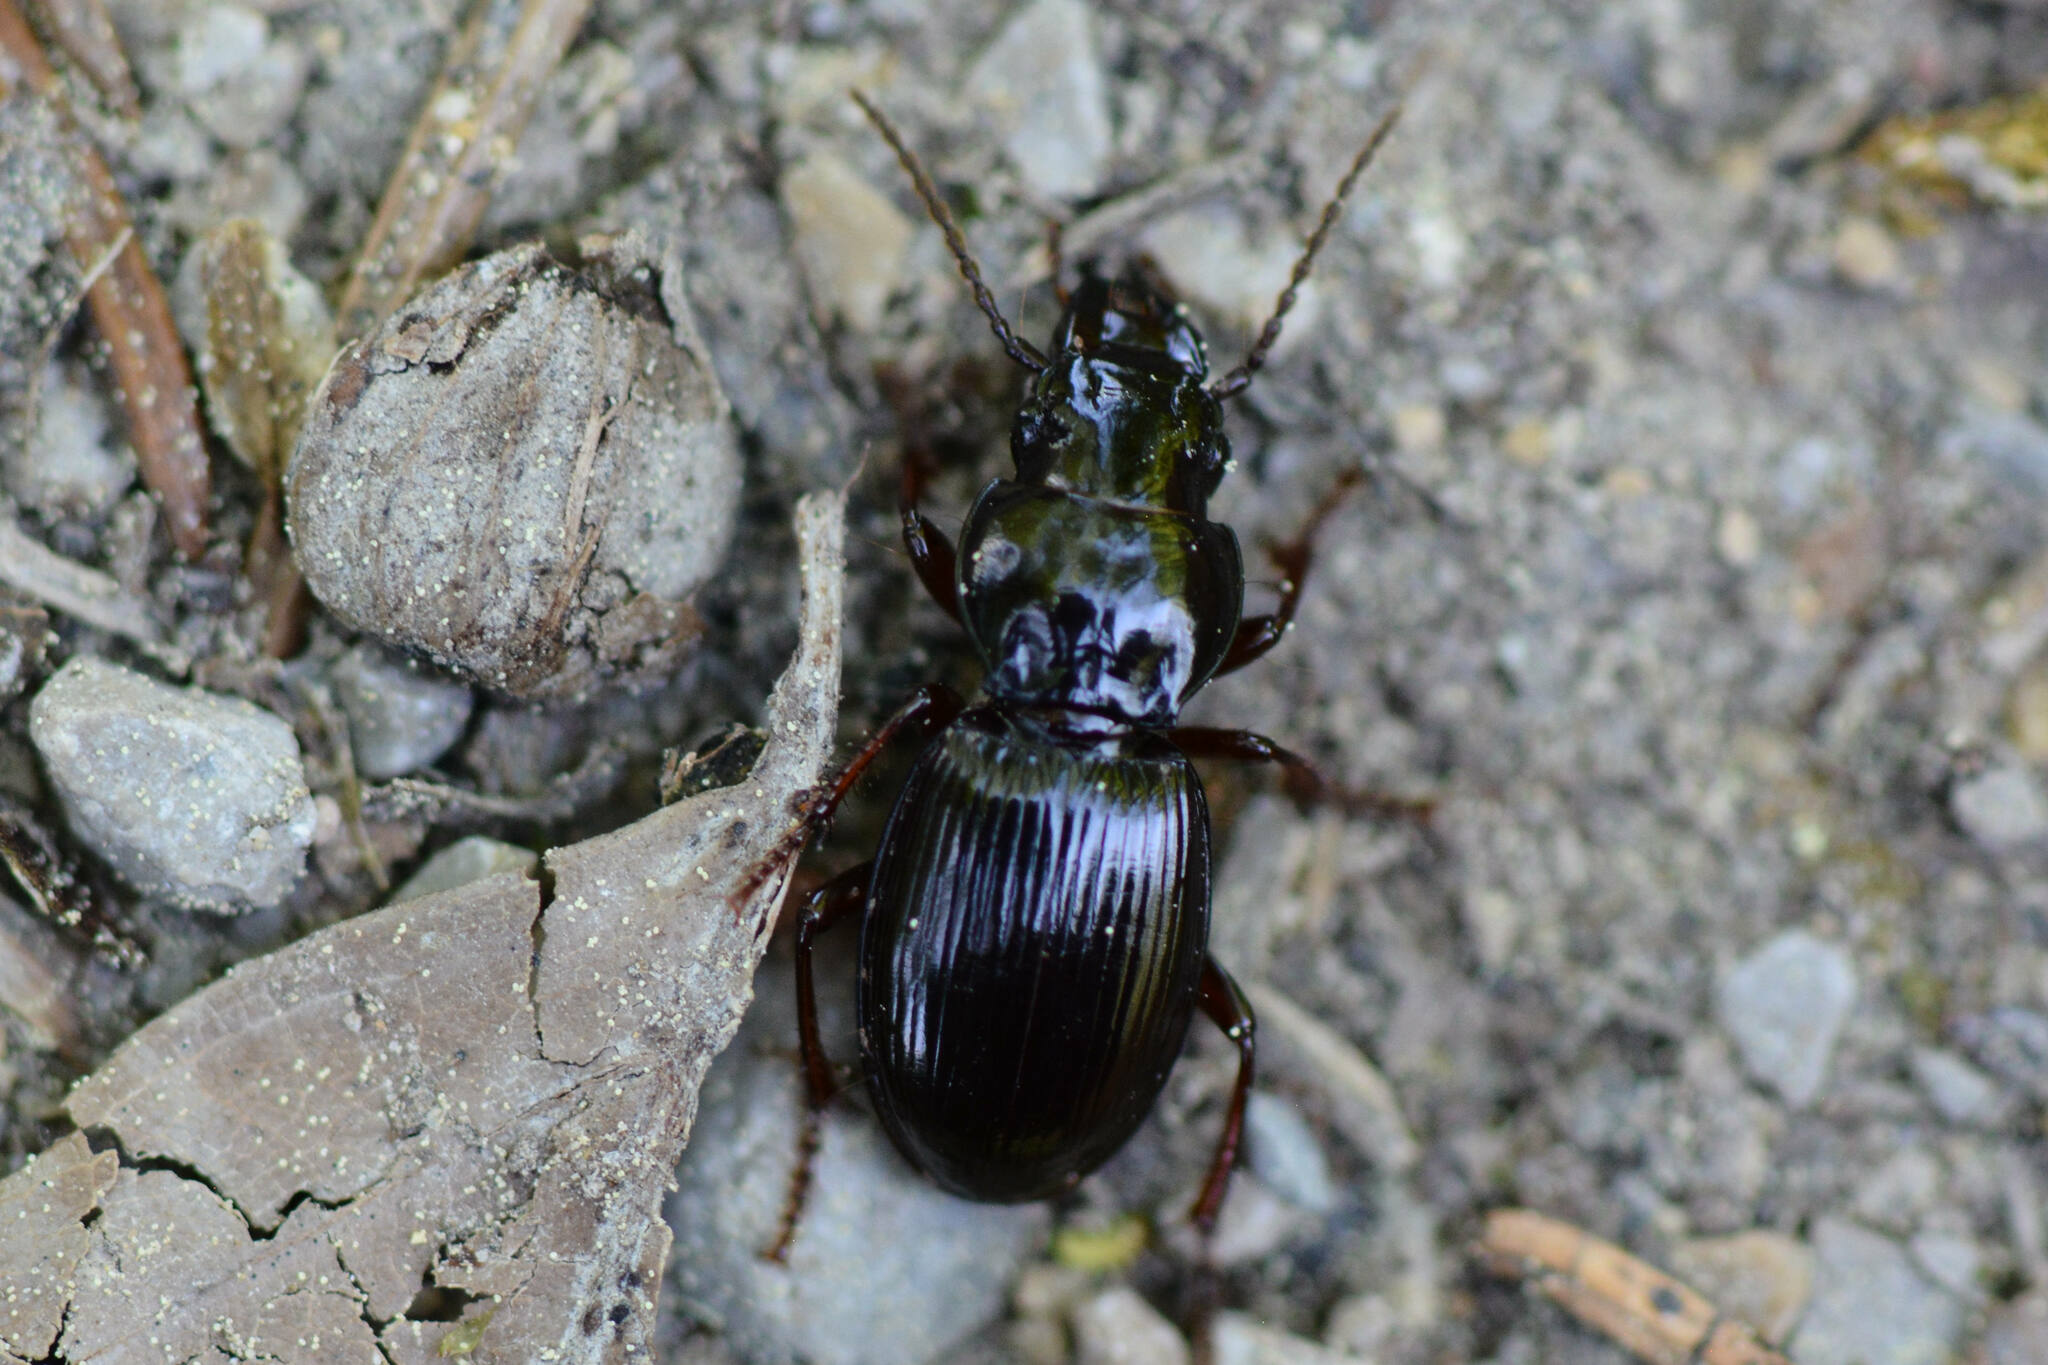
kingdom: Animalia
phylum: Arthropoda
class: Insecta
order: Coleoptera
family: Carabidae
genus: Molops
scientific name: Molops piceus
